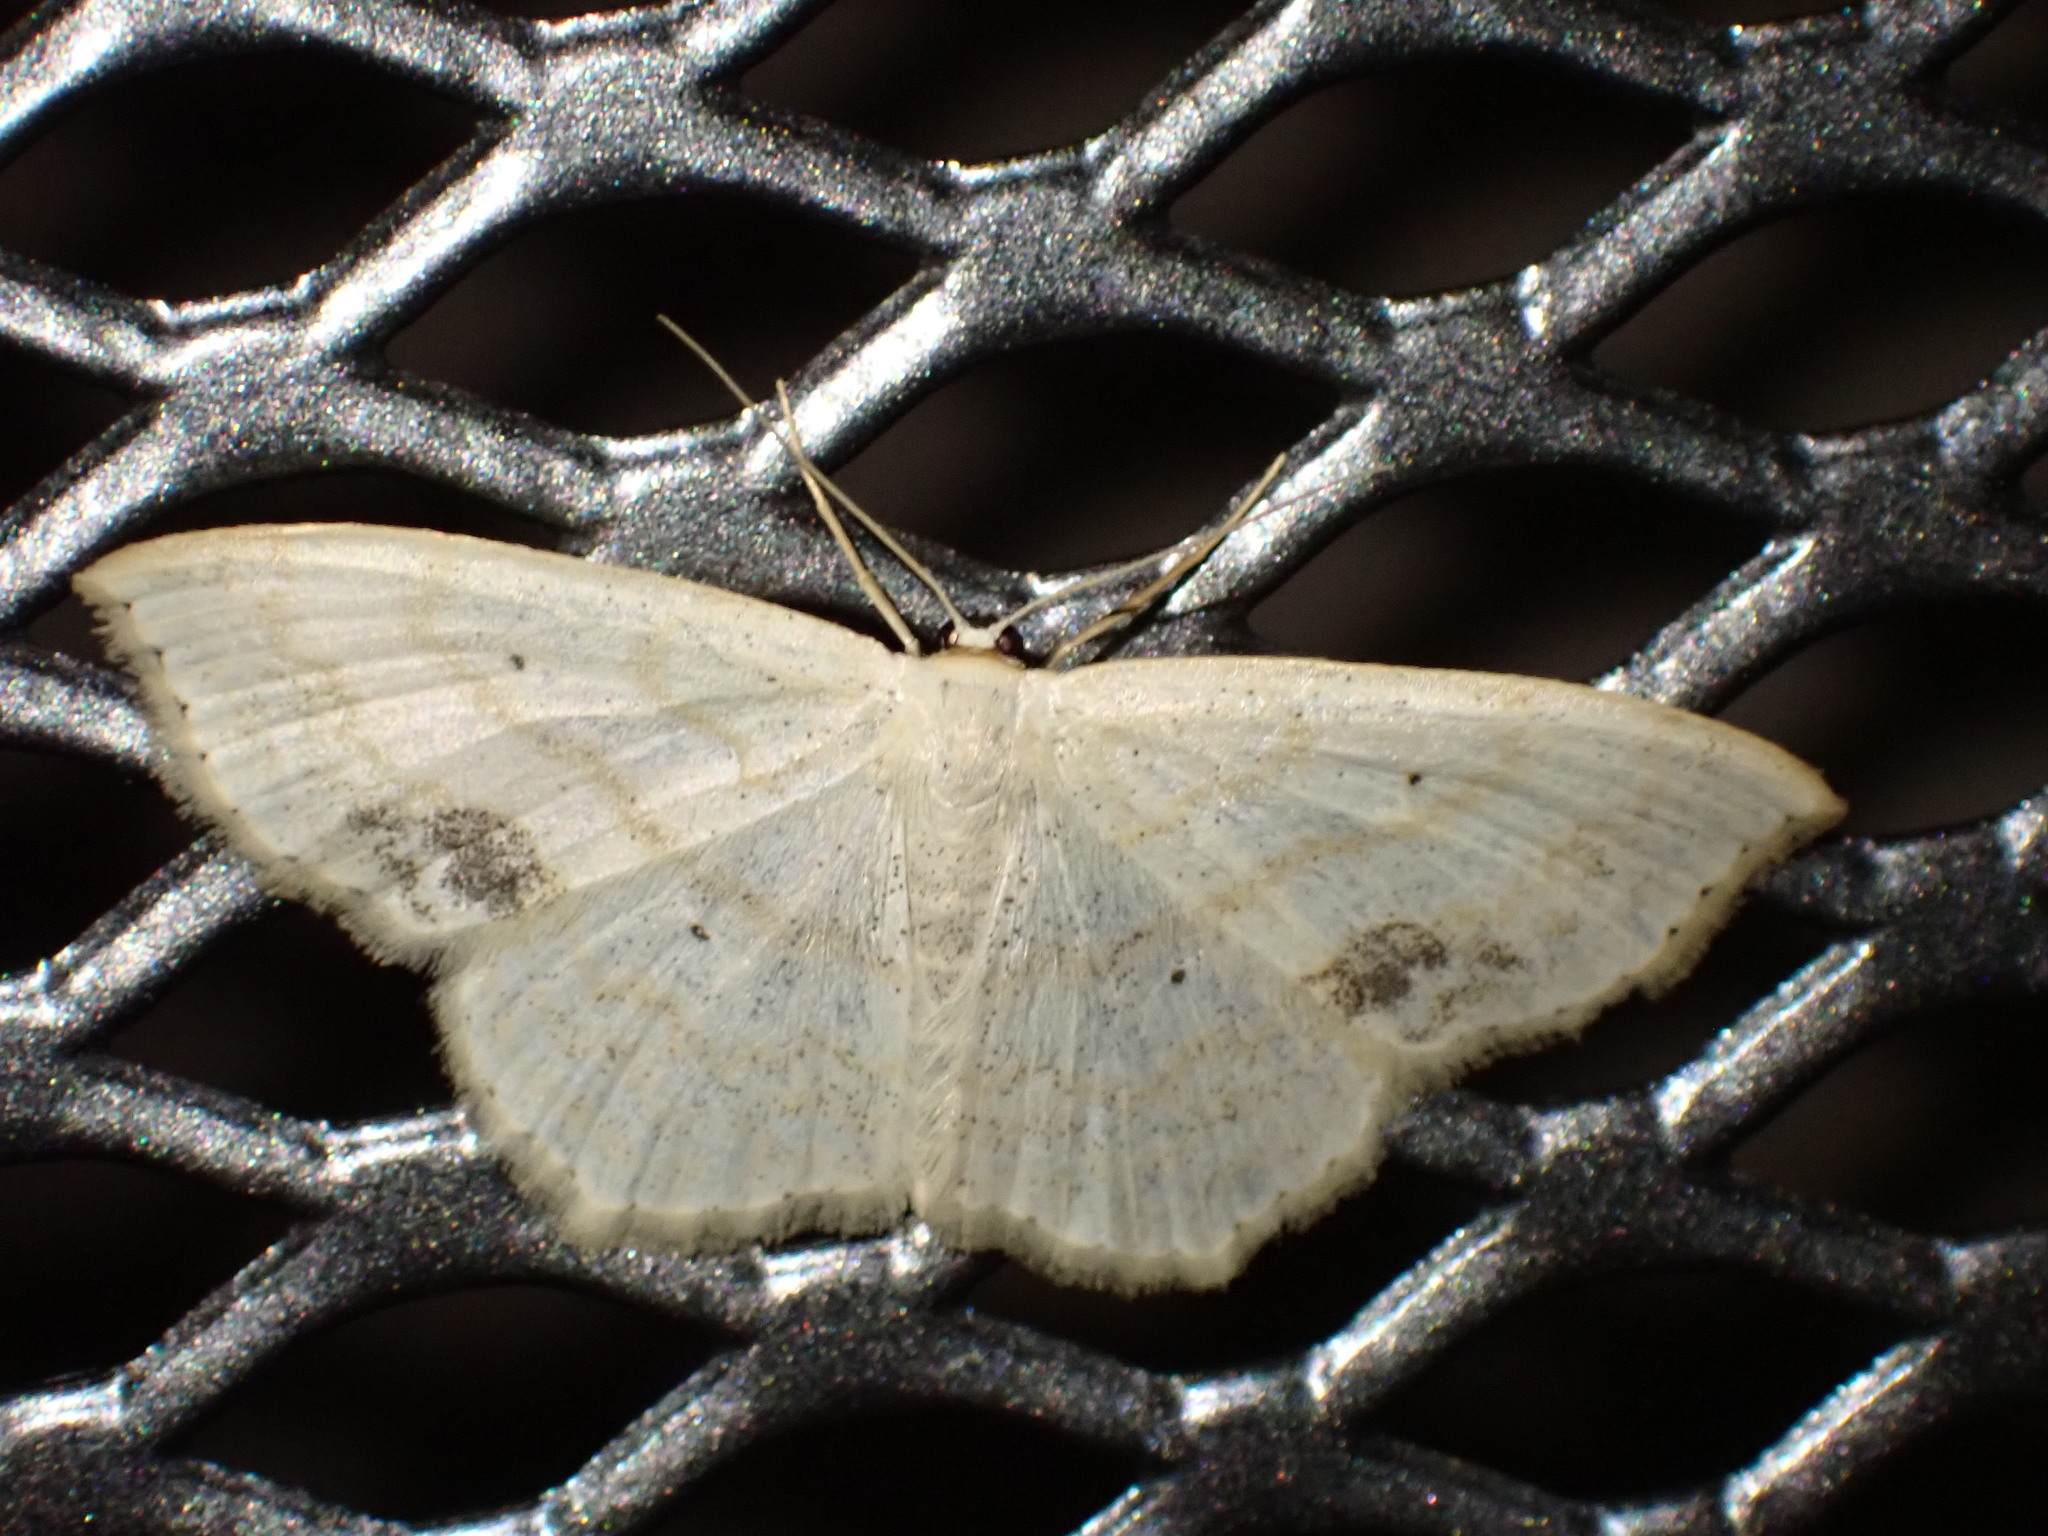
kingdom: Animalia
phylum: Arthropoda
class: Insecta
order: Lepidoptera
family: Geometridae
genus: Scopula
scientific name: Scopula limboundata
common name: Large lace border
